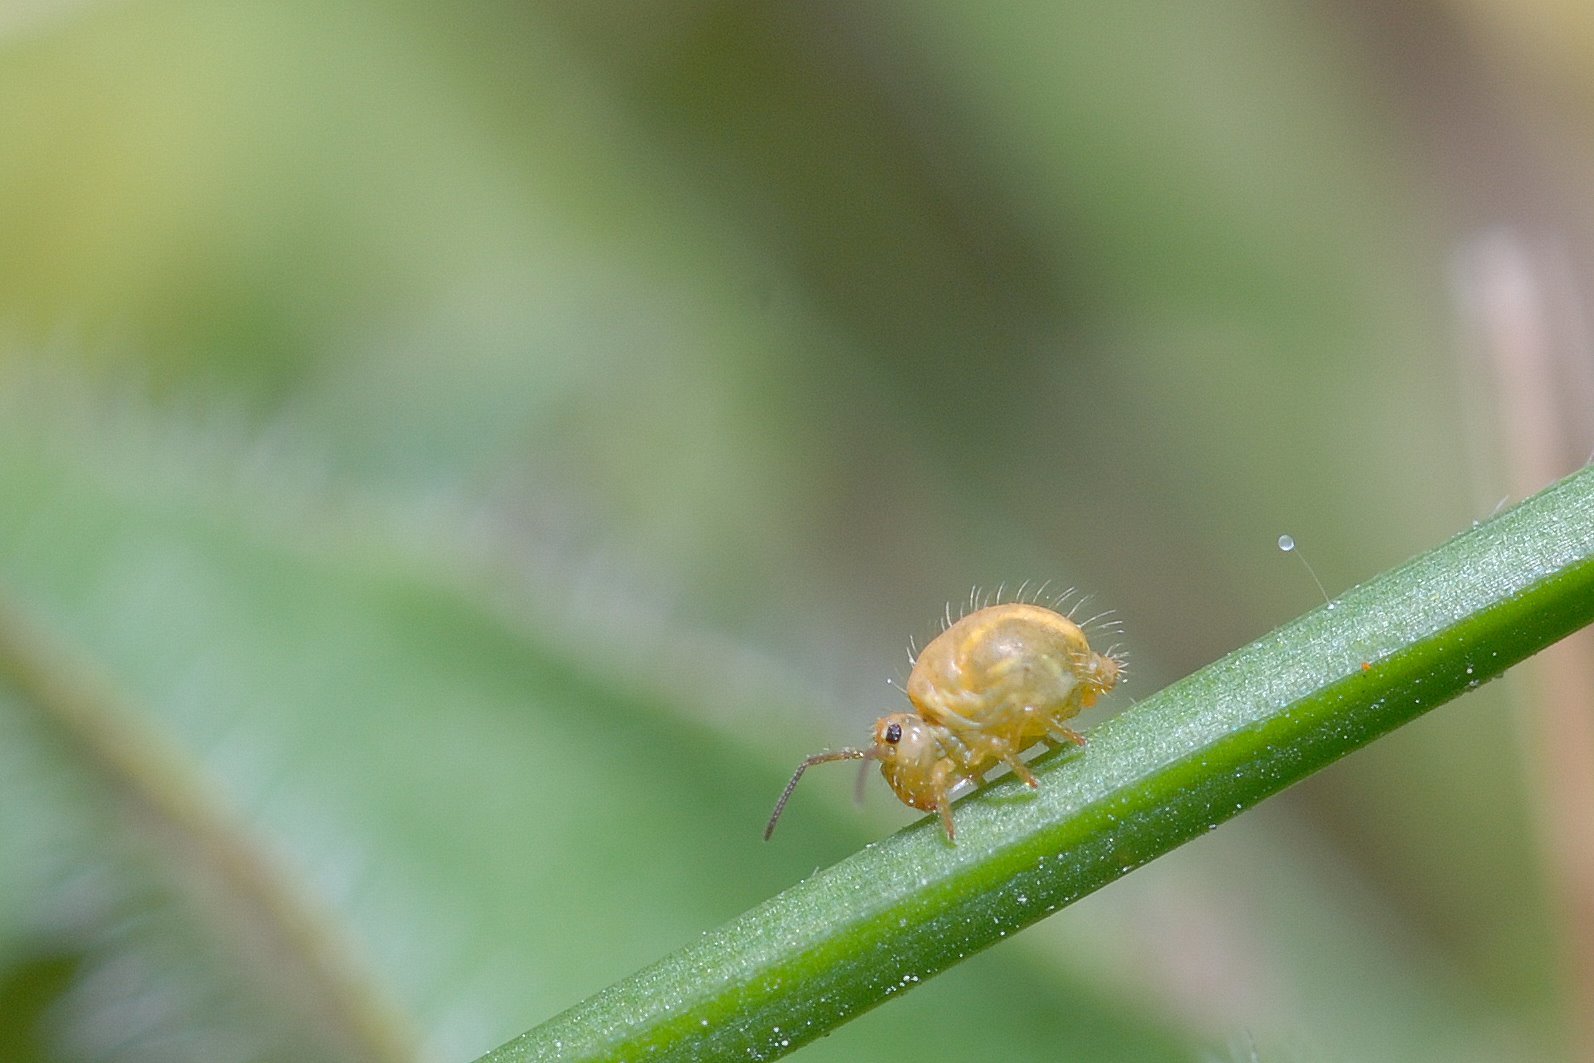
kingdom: Animalia
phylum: Arthropoda
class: Collembola
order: Symphypleona
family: Sminthuridae
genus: Sminthurus
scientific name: Sminthurus viridis
